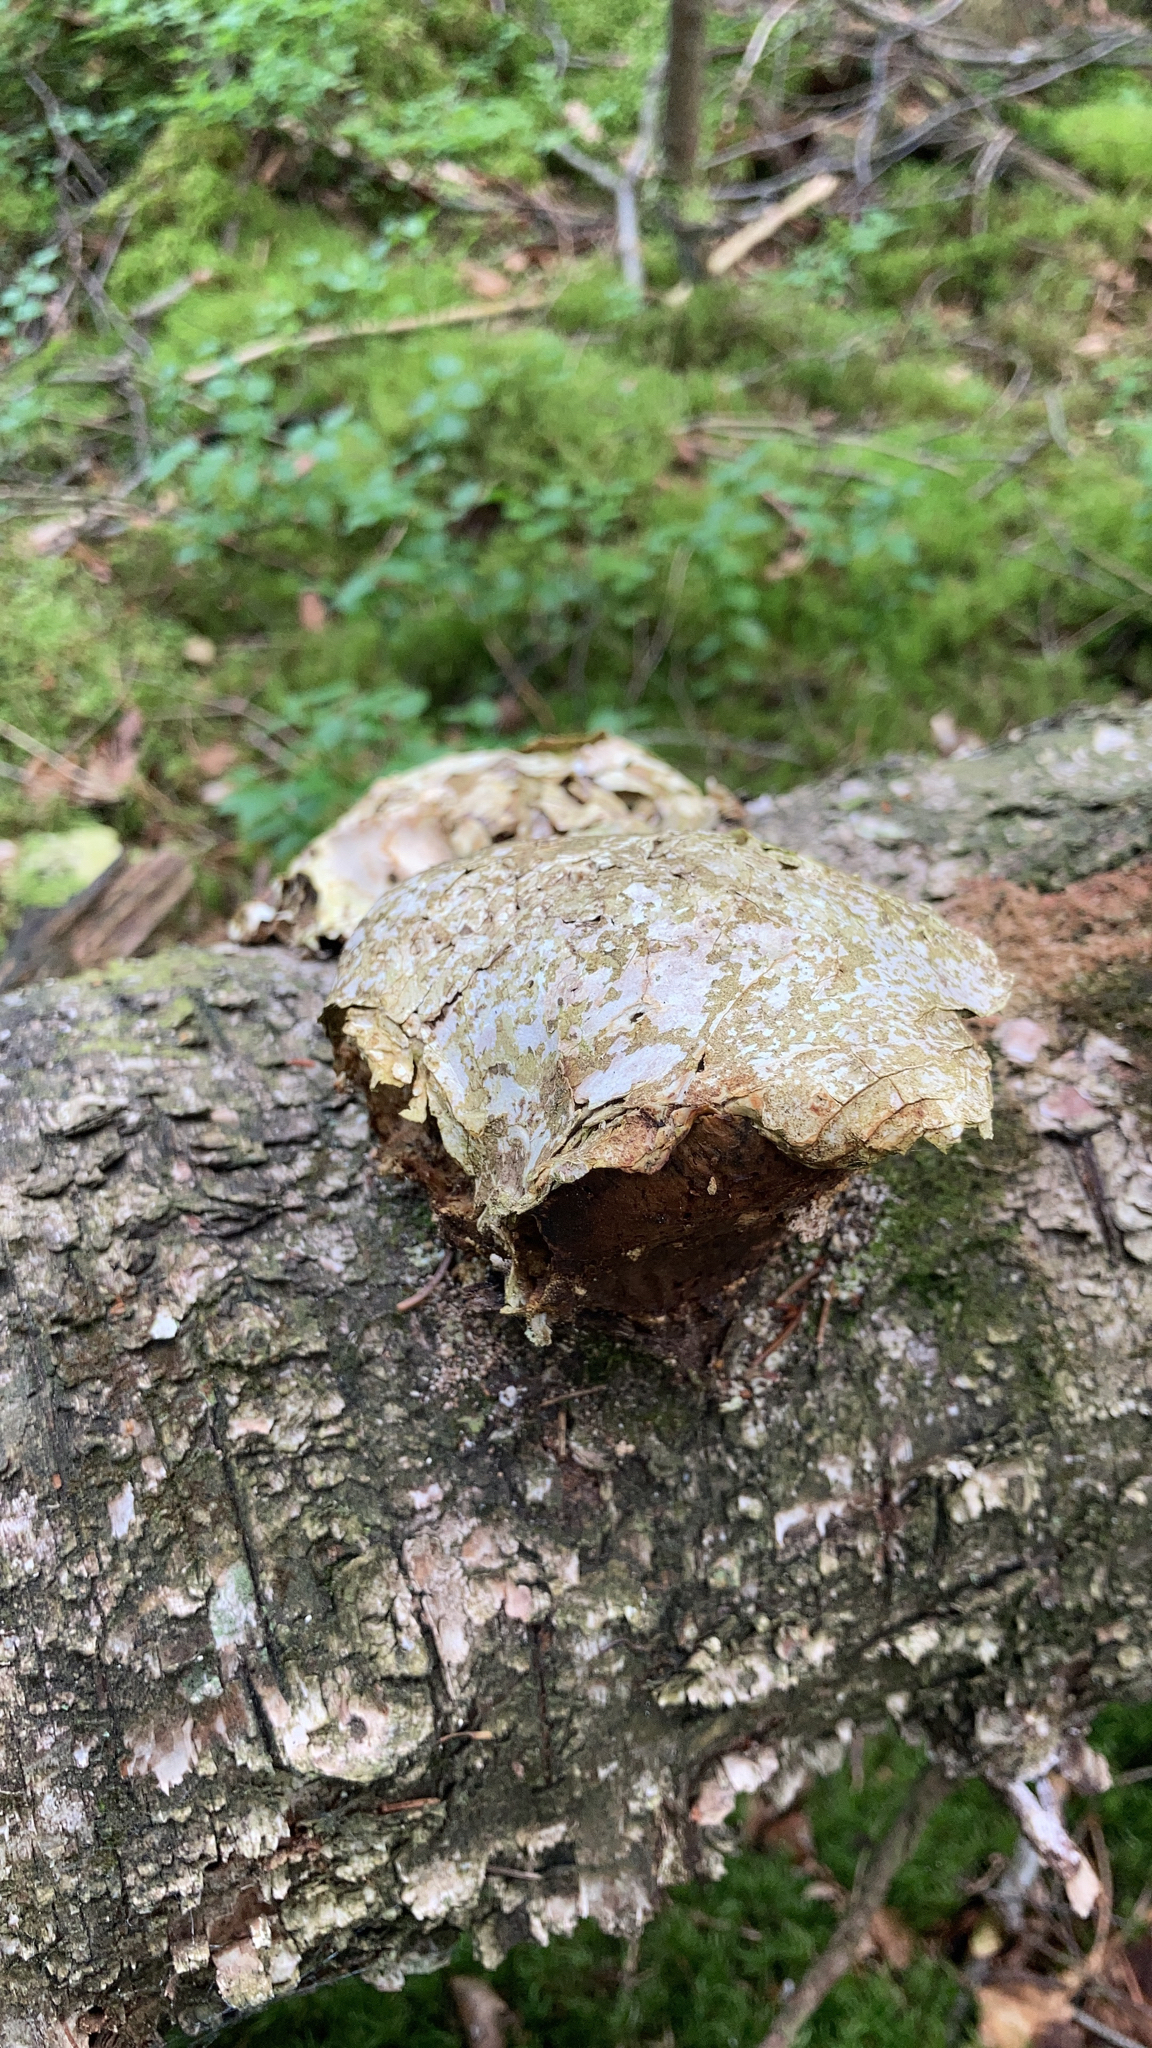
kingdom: Fungi
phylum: Basidiomycota
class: Agaricomycetes
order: Polyporales
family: Fomitopsidaceae
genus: Fomitopsis
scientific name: Fomitopsis betulina
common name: Birch polypore
